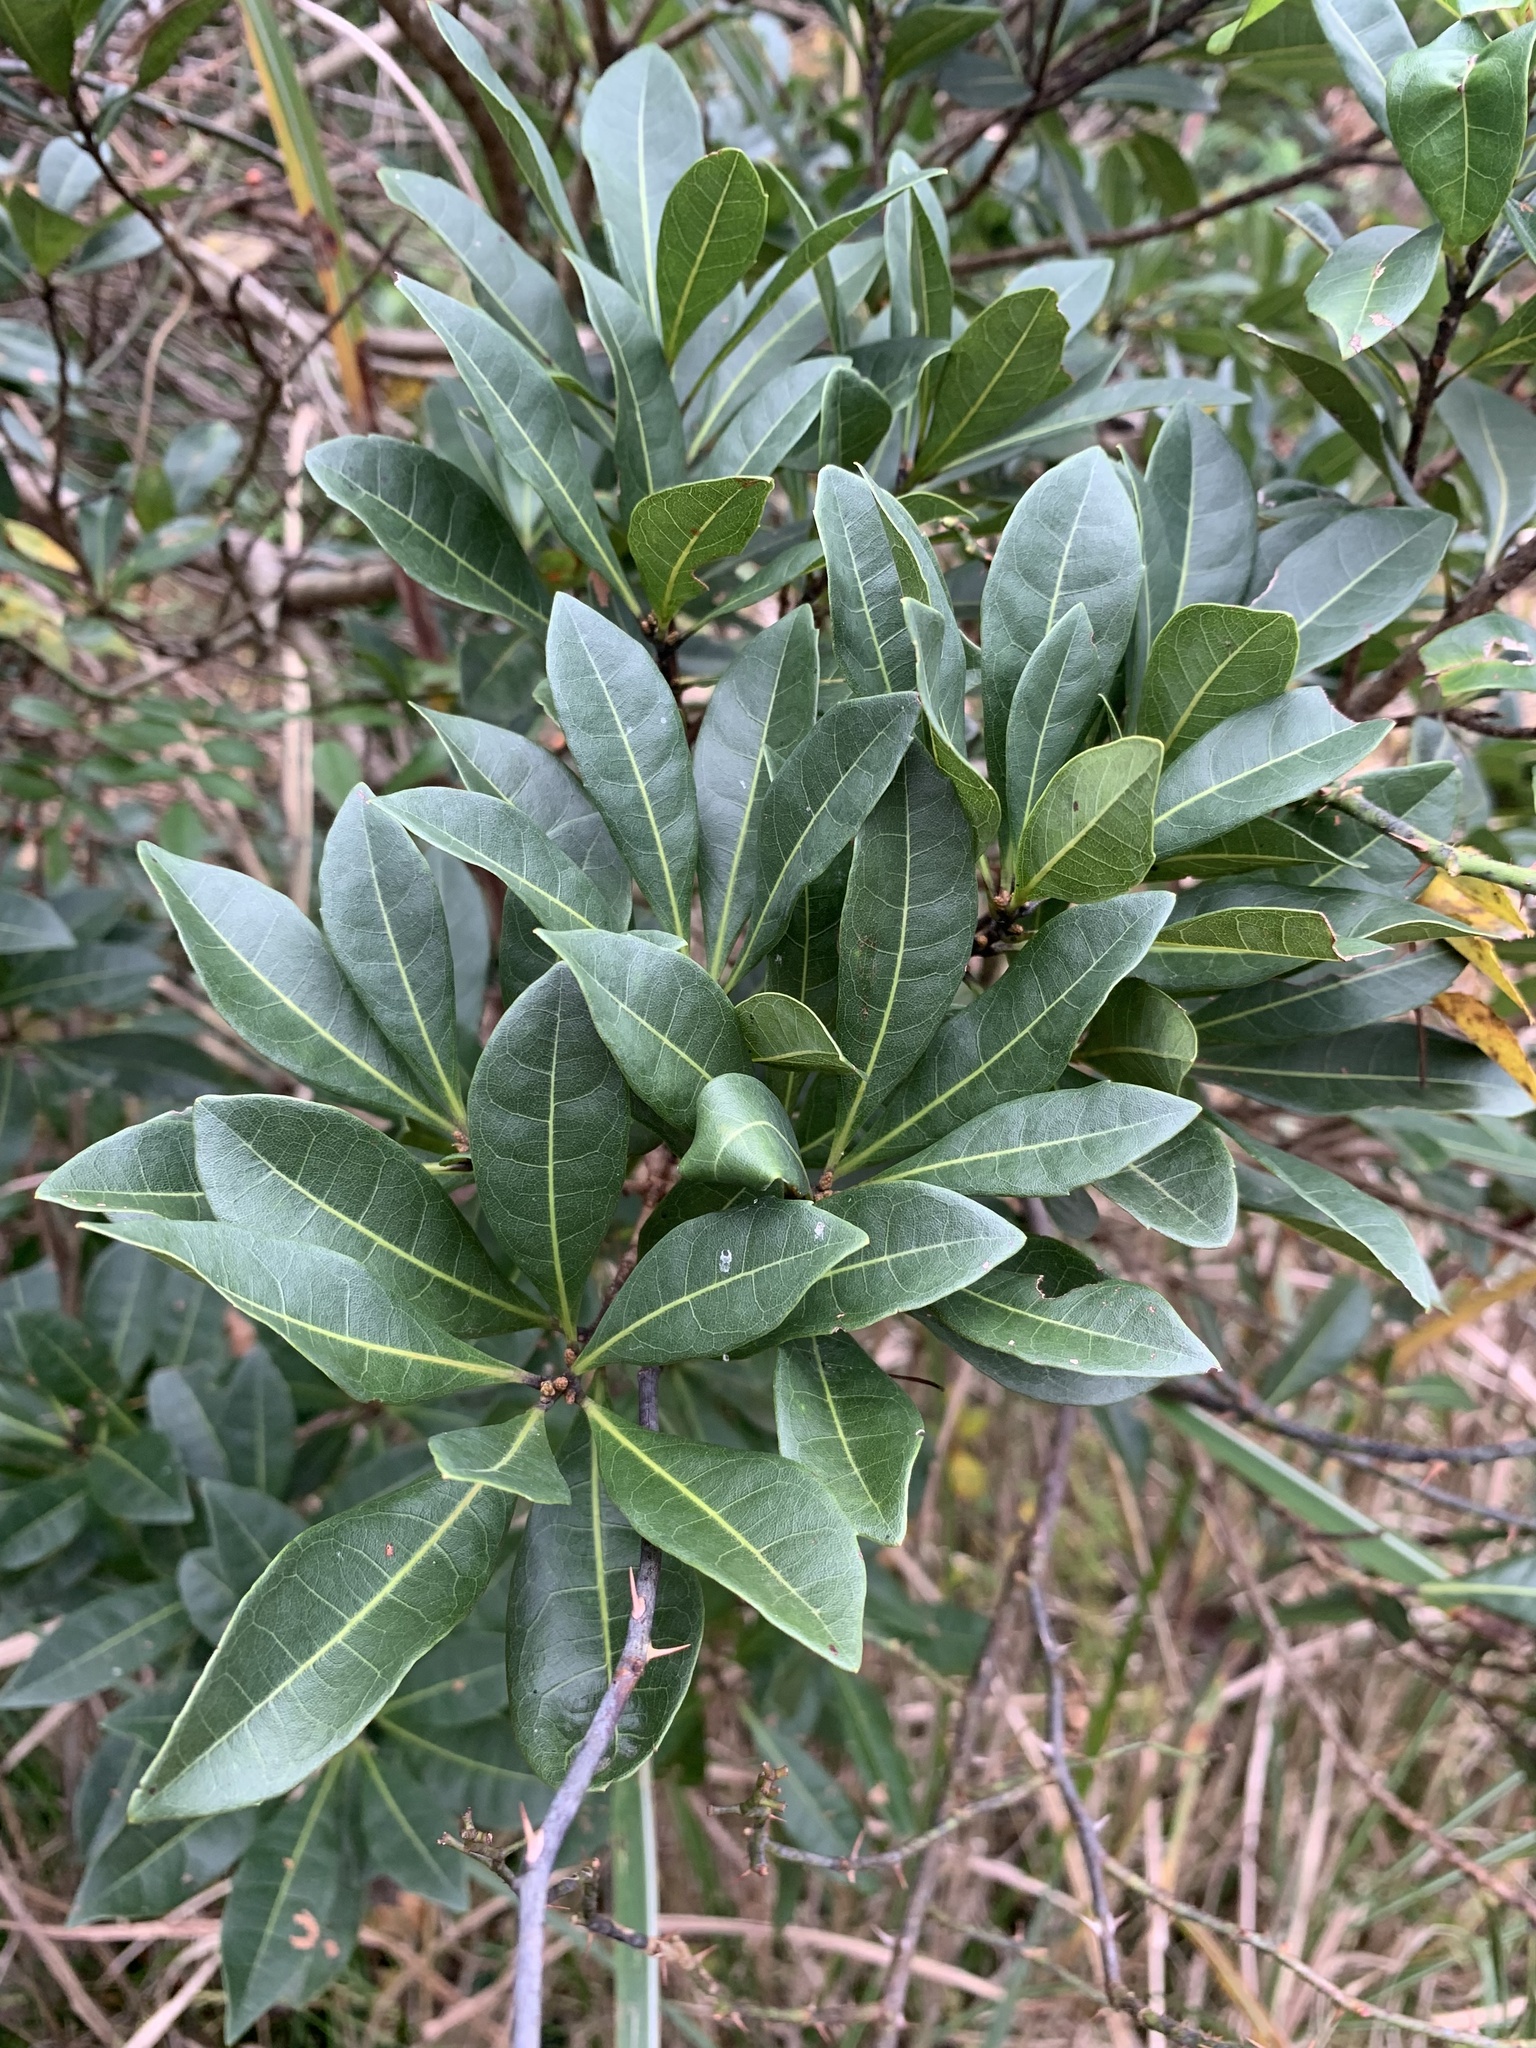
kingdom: Plantae
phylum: Tracheophyta
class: Magnoliopsida
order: Fagales
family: Myricaceae
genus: Morella
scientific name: Morella rubra
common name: Red bayberry
